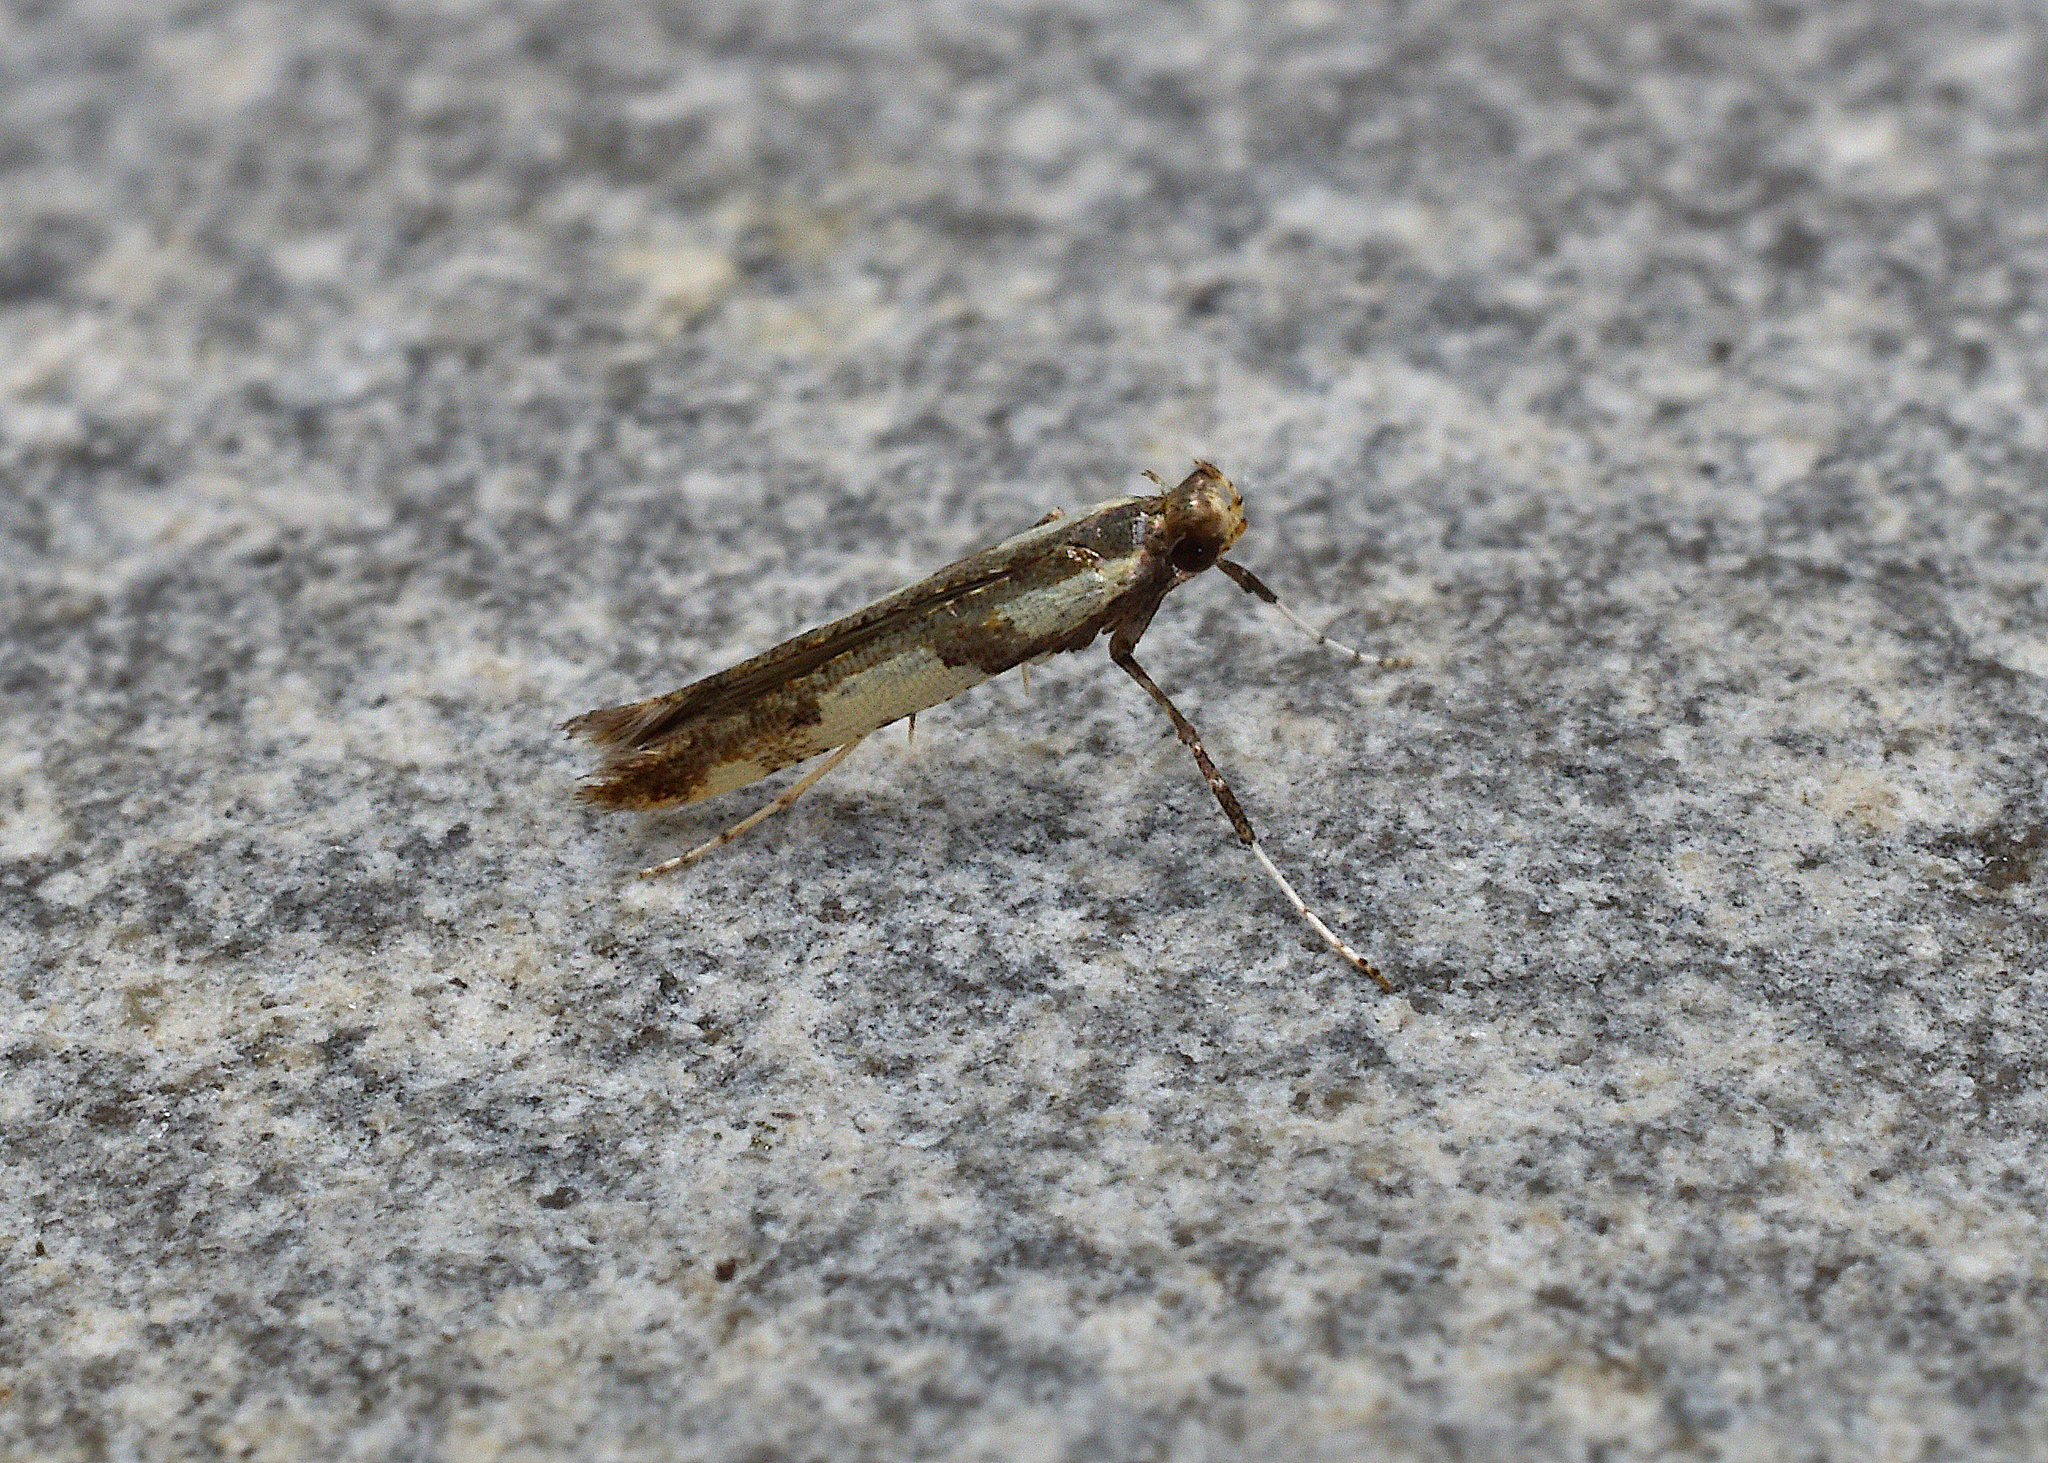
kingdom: Animalia
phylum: Arthropoda
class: Insecta
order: Lepidoptera
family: Gracillariidae
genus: Caloptilia
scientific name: Caloptilia blandella
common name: Walnut caloptilia moth
